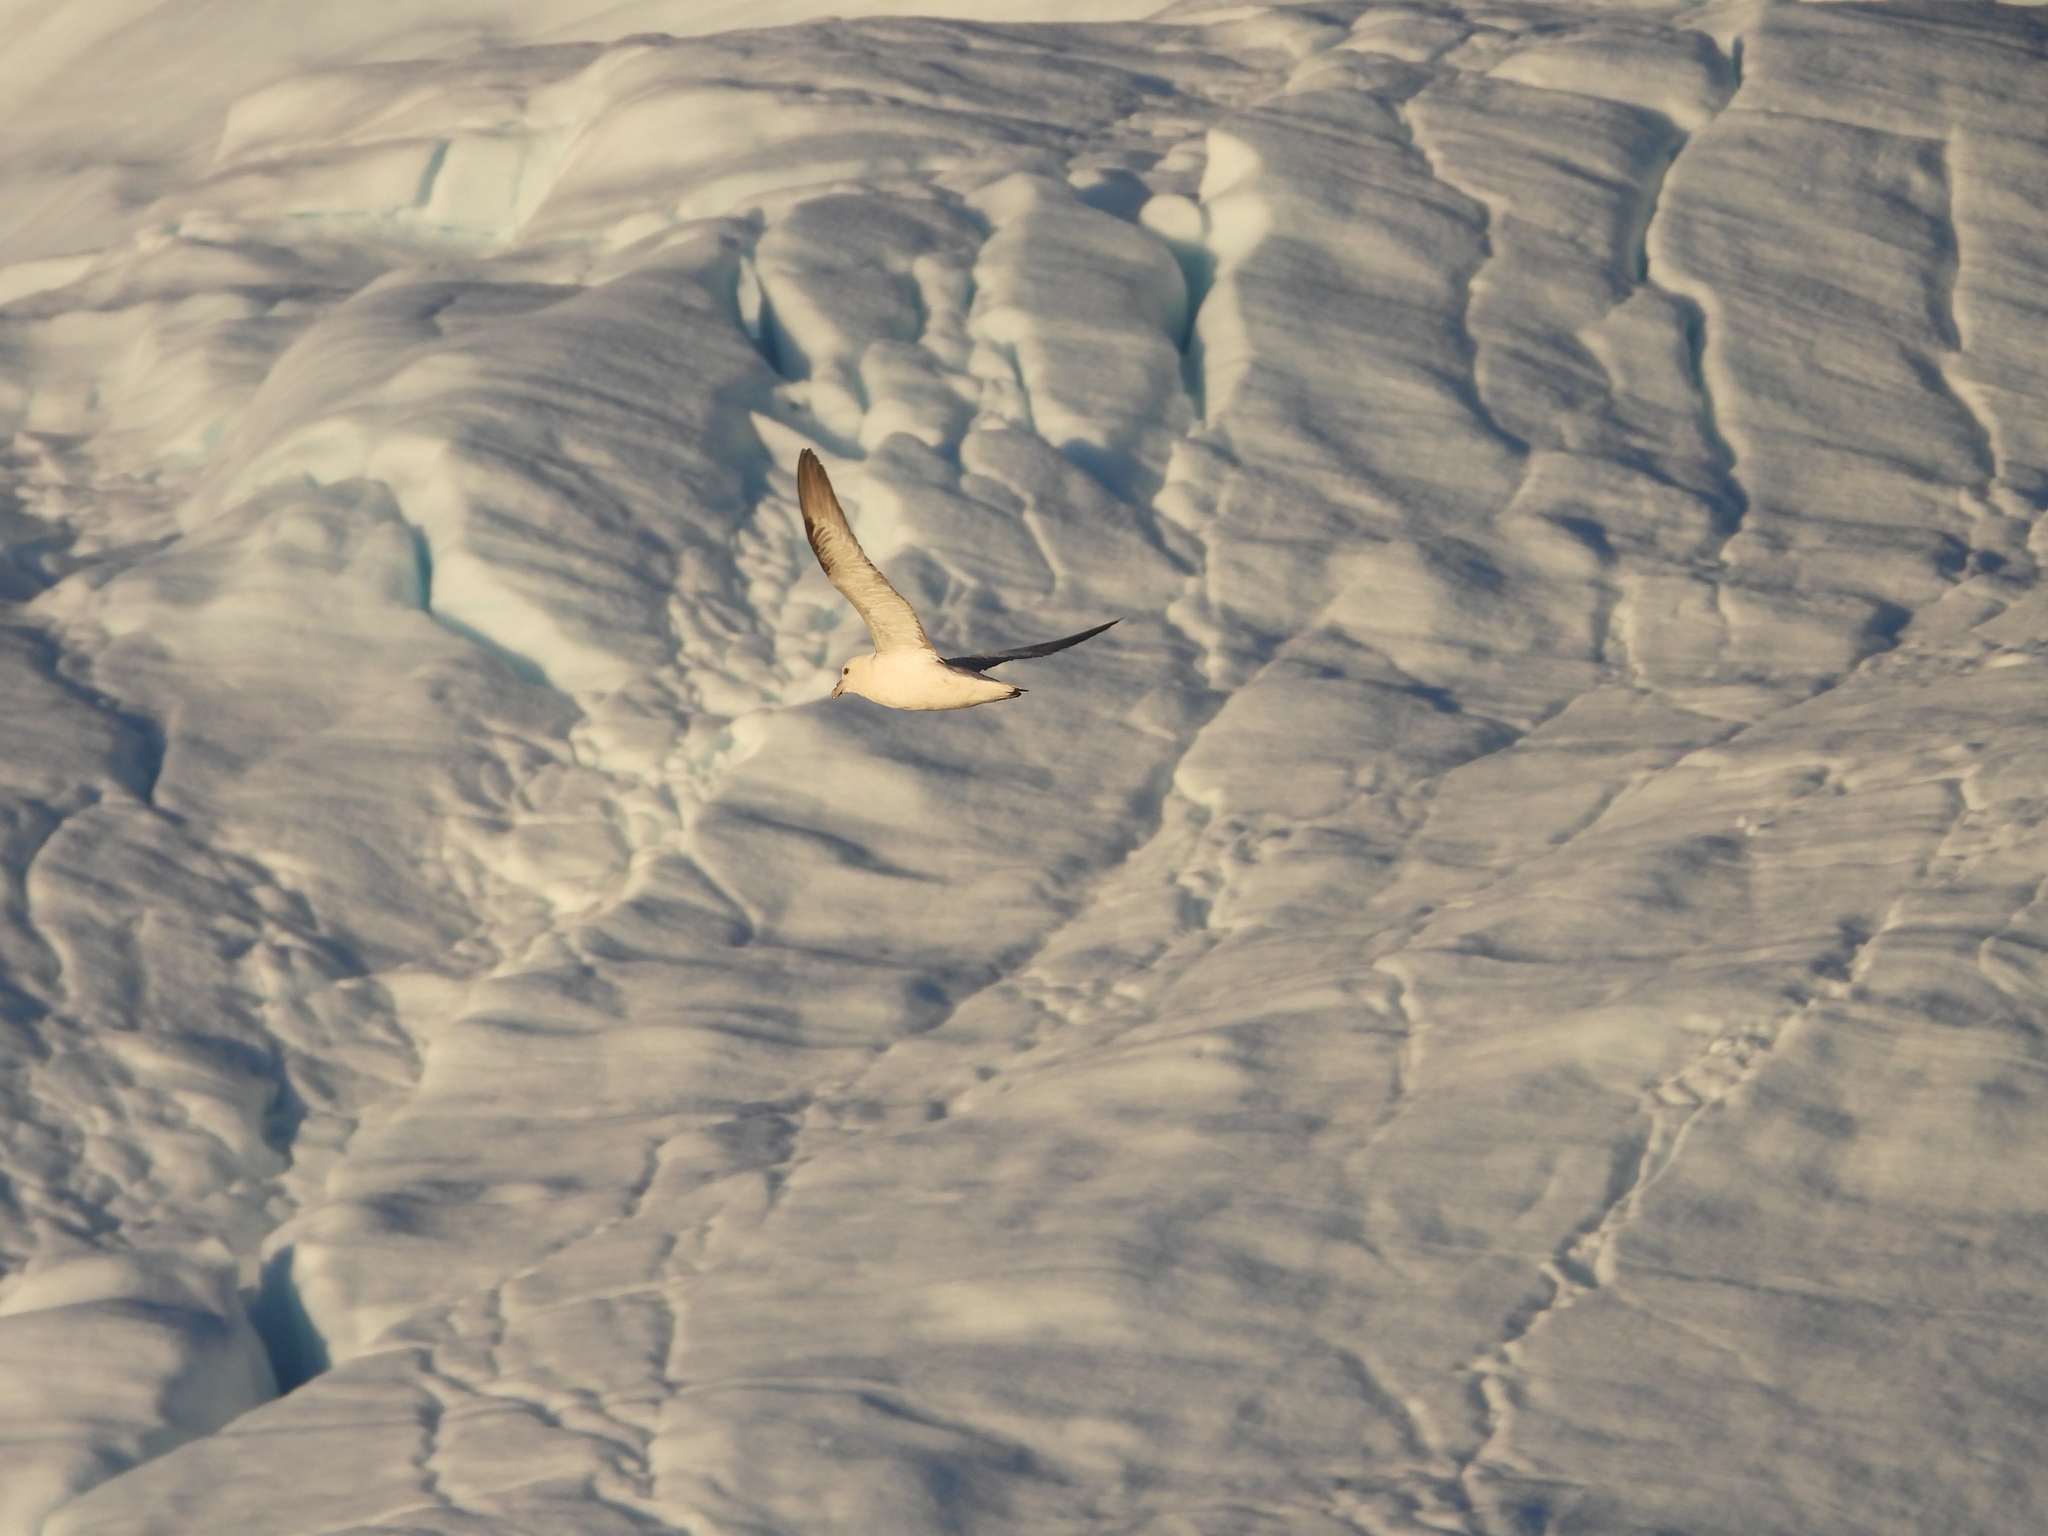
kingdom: Animalia
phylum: Chordata
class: Aves
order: Procellariiformes
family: Procellariidae
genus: Fulmarus
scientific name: Fulmarus glacialis
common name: Northern fulmar
